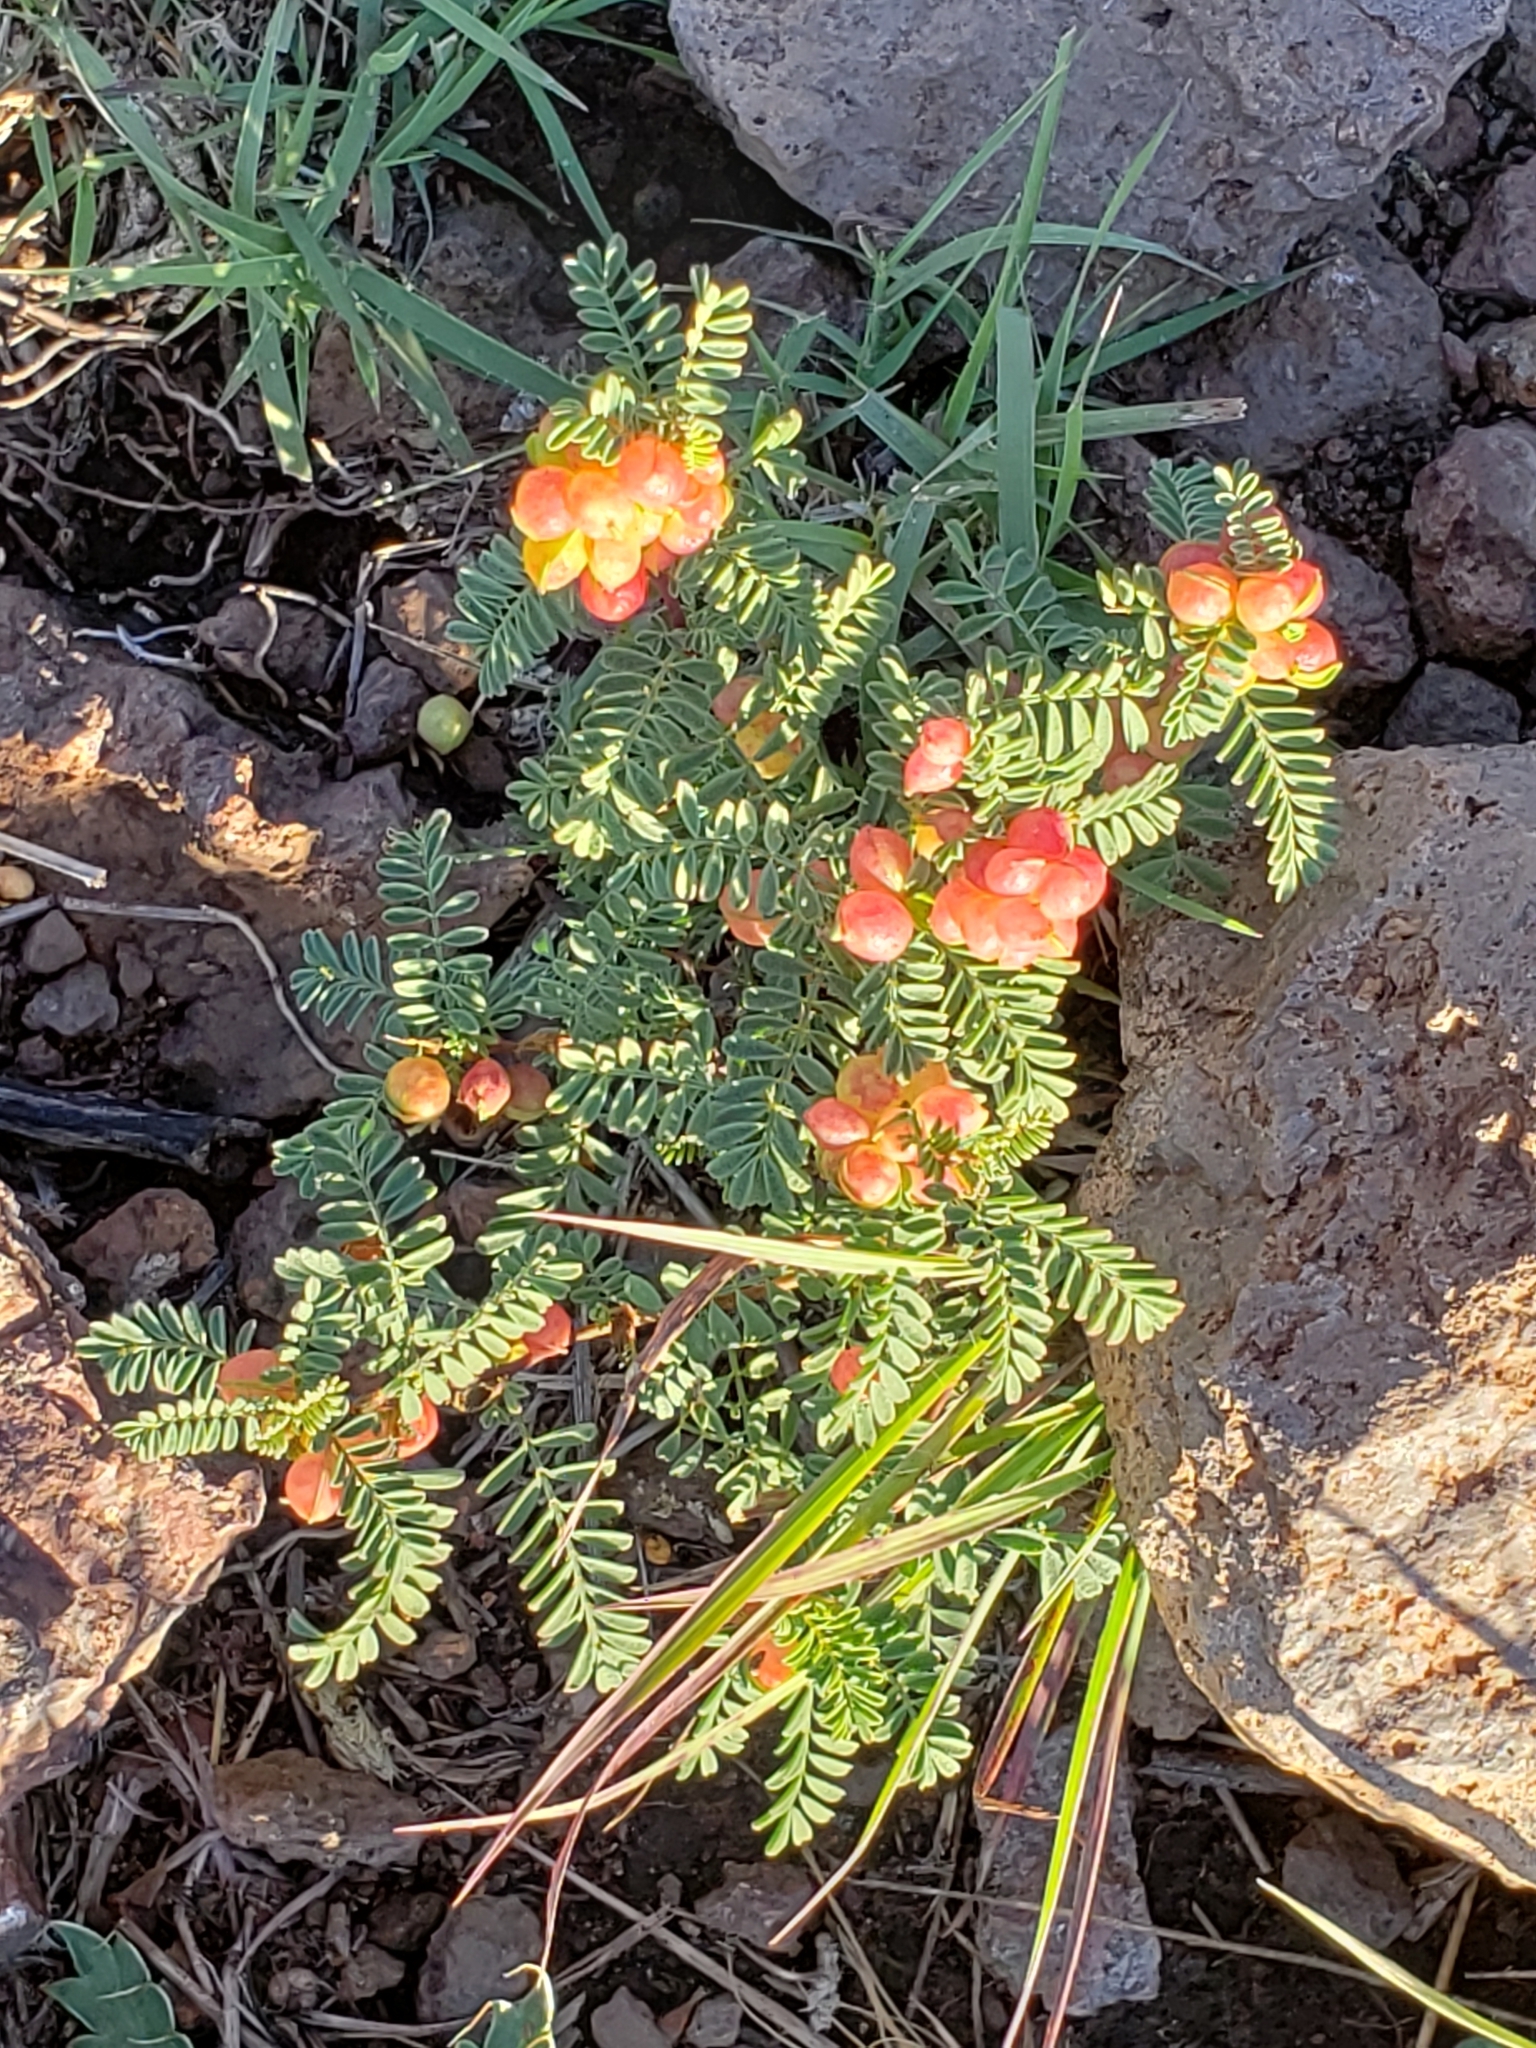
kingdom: Plantae
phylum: Tracheophyta
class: Magnoliopsida
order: Fabales
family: Fabaceae
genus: Astragalus
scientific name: Astragalus wootonii
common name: Wooton's milk-vetch
